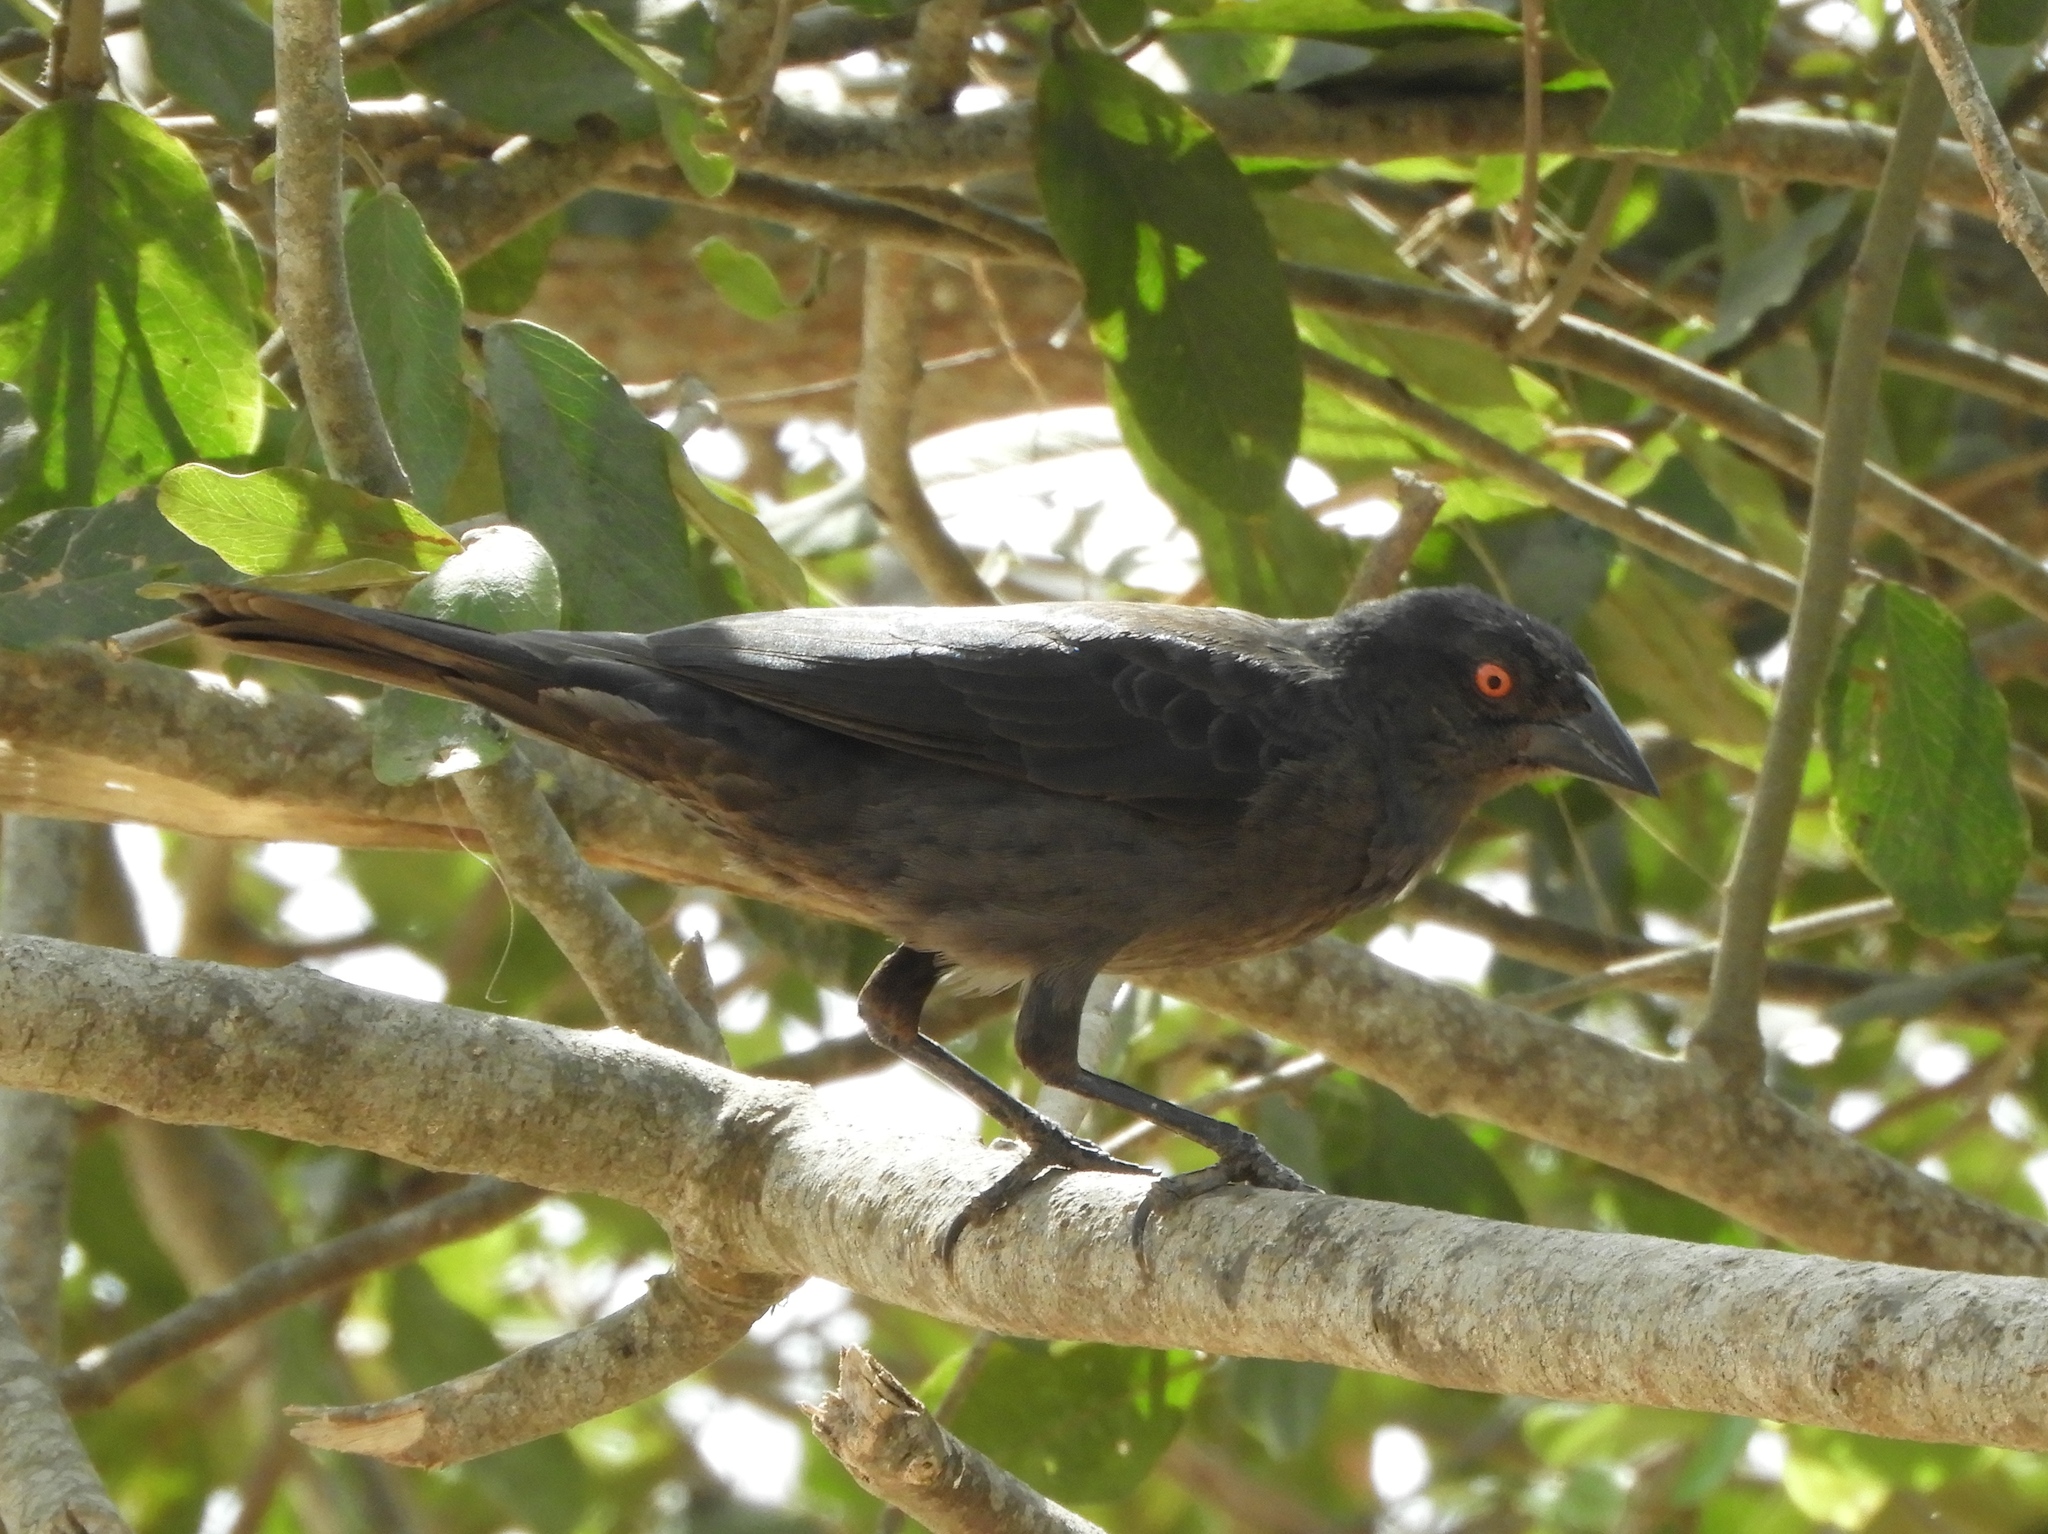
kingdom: Animalia
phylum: Chordata
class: Aves
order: Passeriformes
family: Icteridae
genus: Molothrus
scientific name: Molothrus aeneus
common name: Bronzed cowbird
